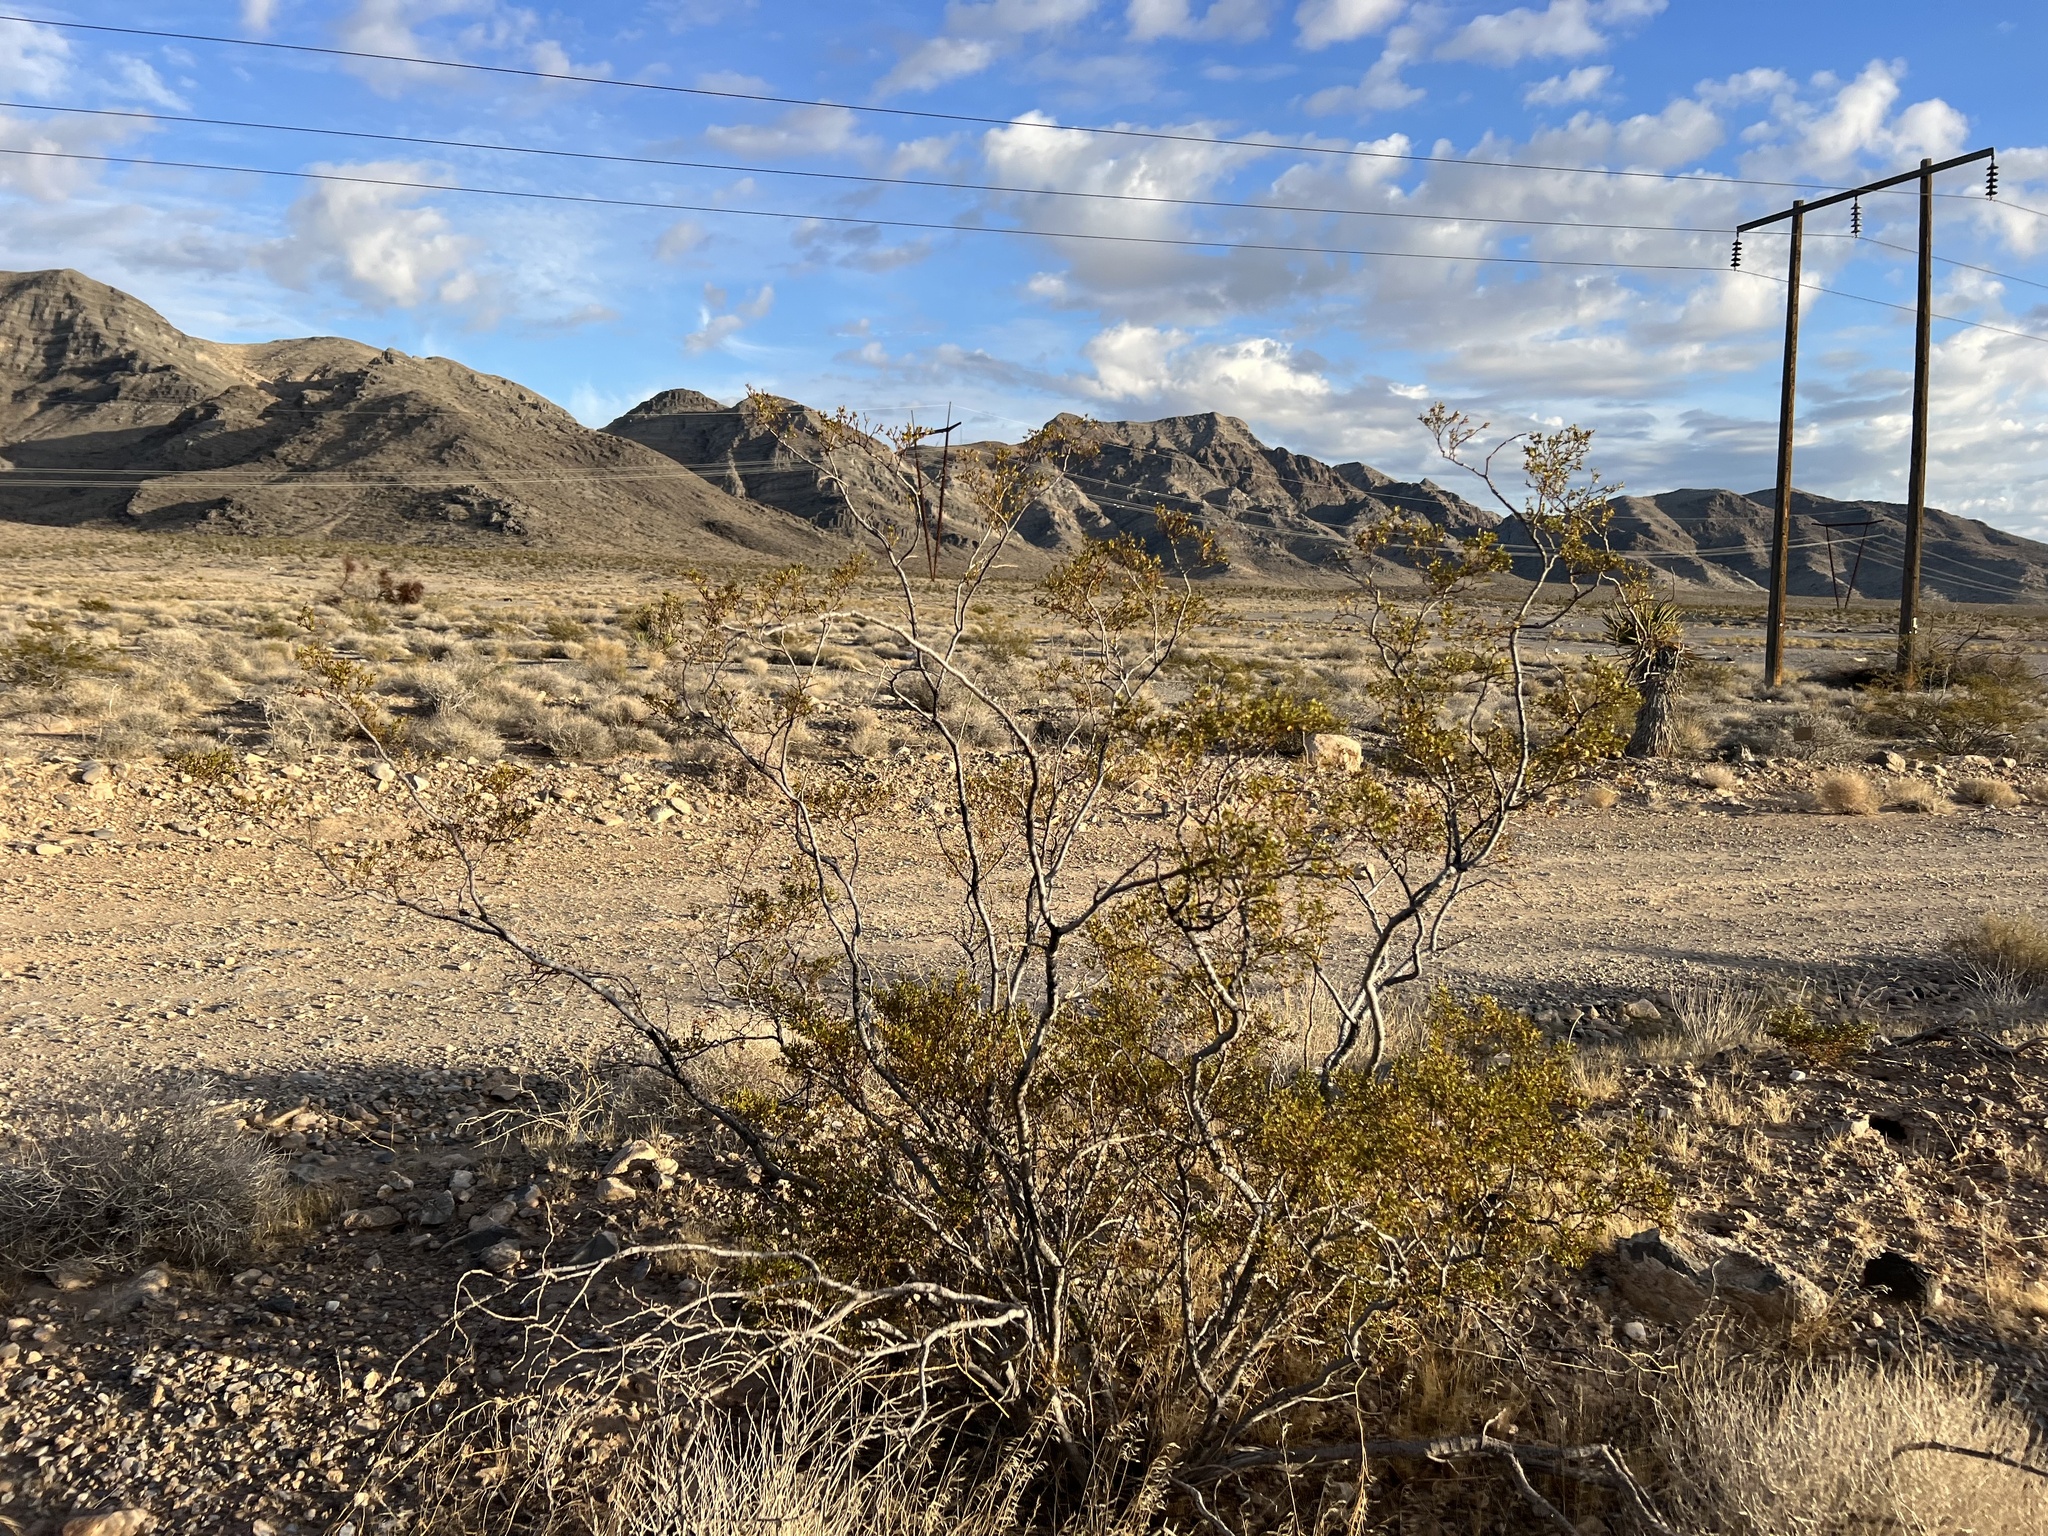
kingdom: Plantae
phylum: Tracheophyta
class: Magnoliopsida
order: Zygophyllales
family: Zygophyllaceae
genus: Larrea
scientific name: Larrea tridentata
